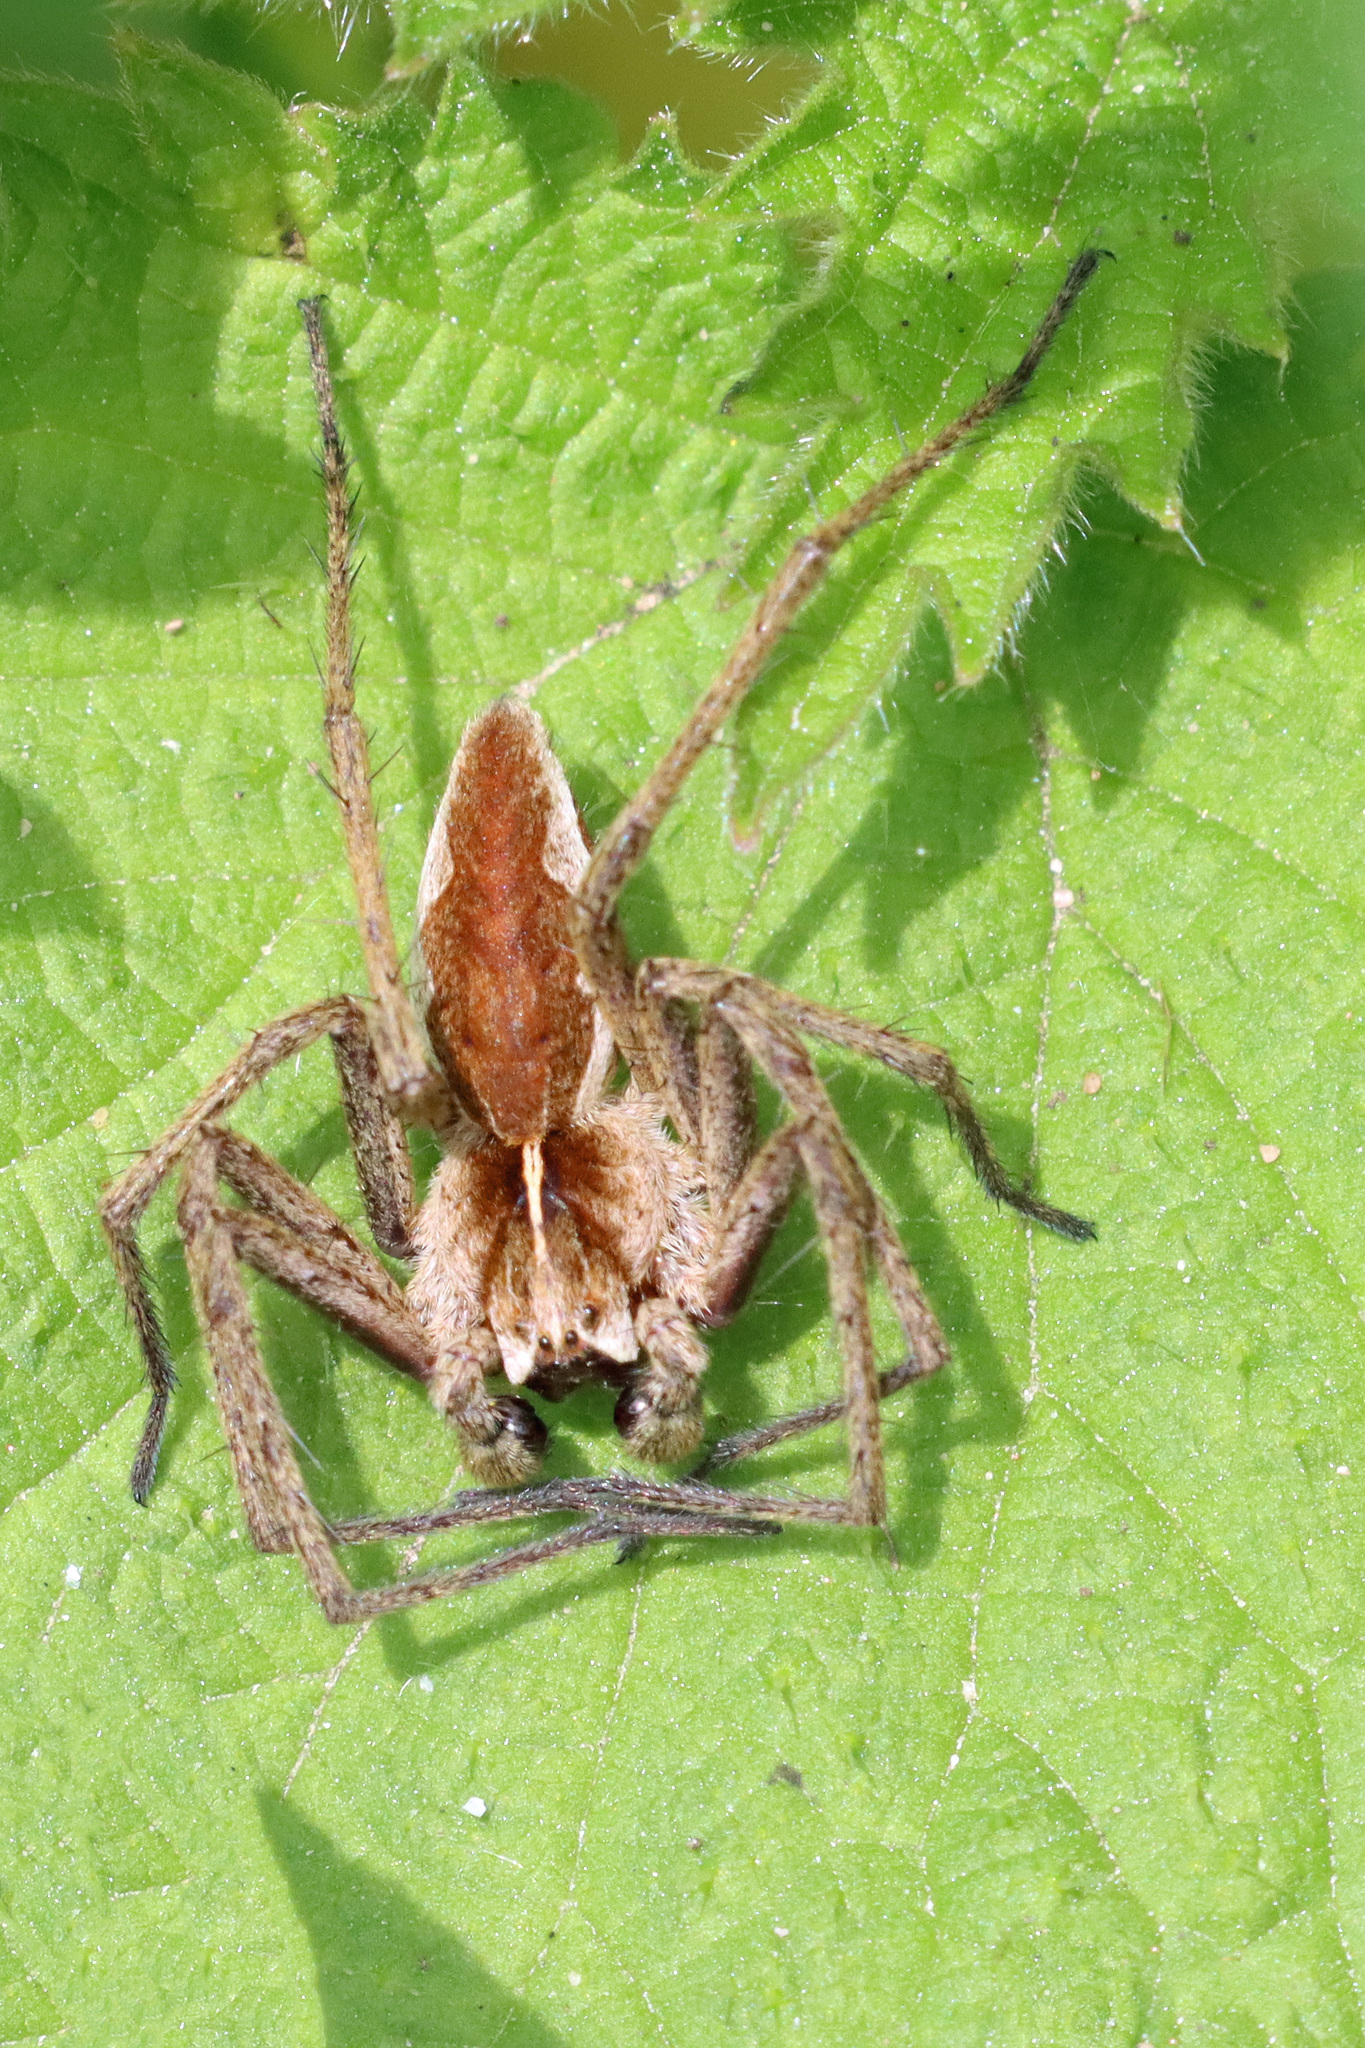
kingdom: Animalia
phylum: Arthropoda
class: Arachnida
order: Araneae
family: Pisauridae
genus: Pisaura
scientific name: Pisaura mirabilis
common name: Tent spider
